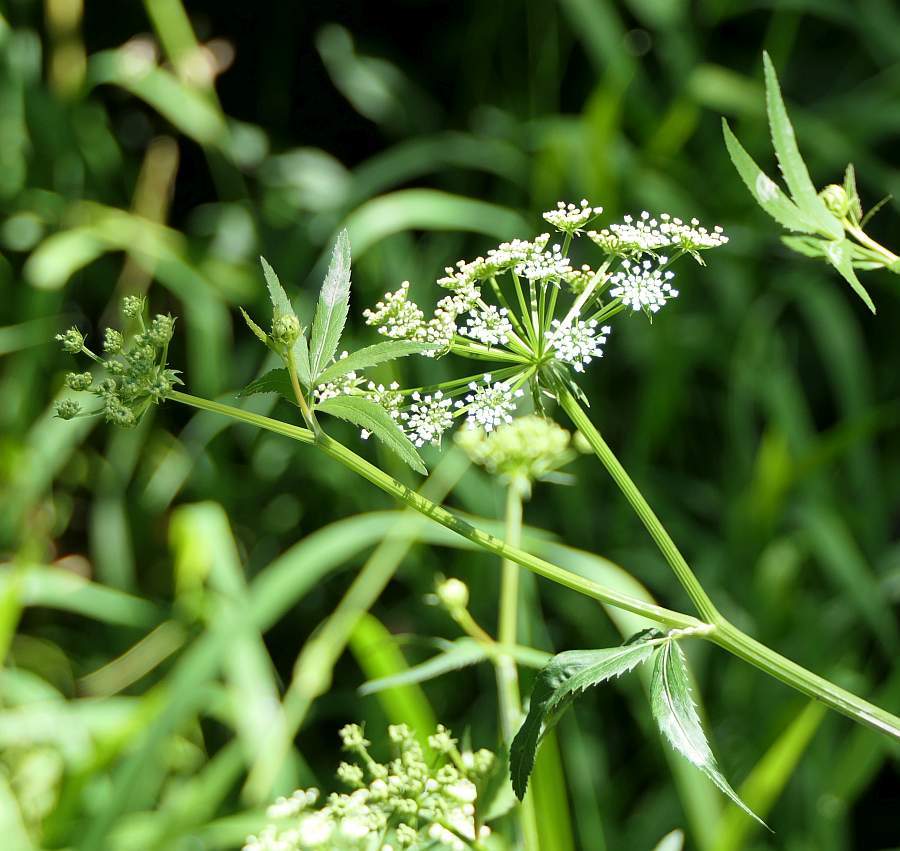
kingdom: Plantae
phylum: Tracheophyta
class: Magnoliopsida
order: Apiales
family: Apiaceae
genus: Sium
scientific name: Sium suave
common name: Hemlock water-parsnip
